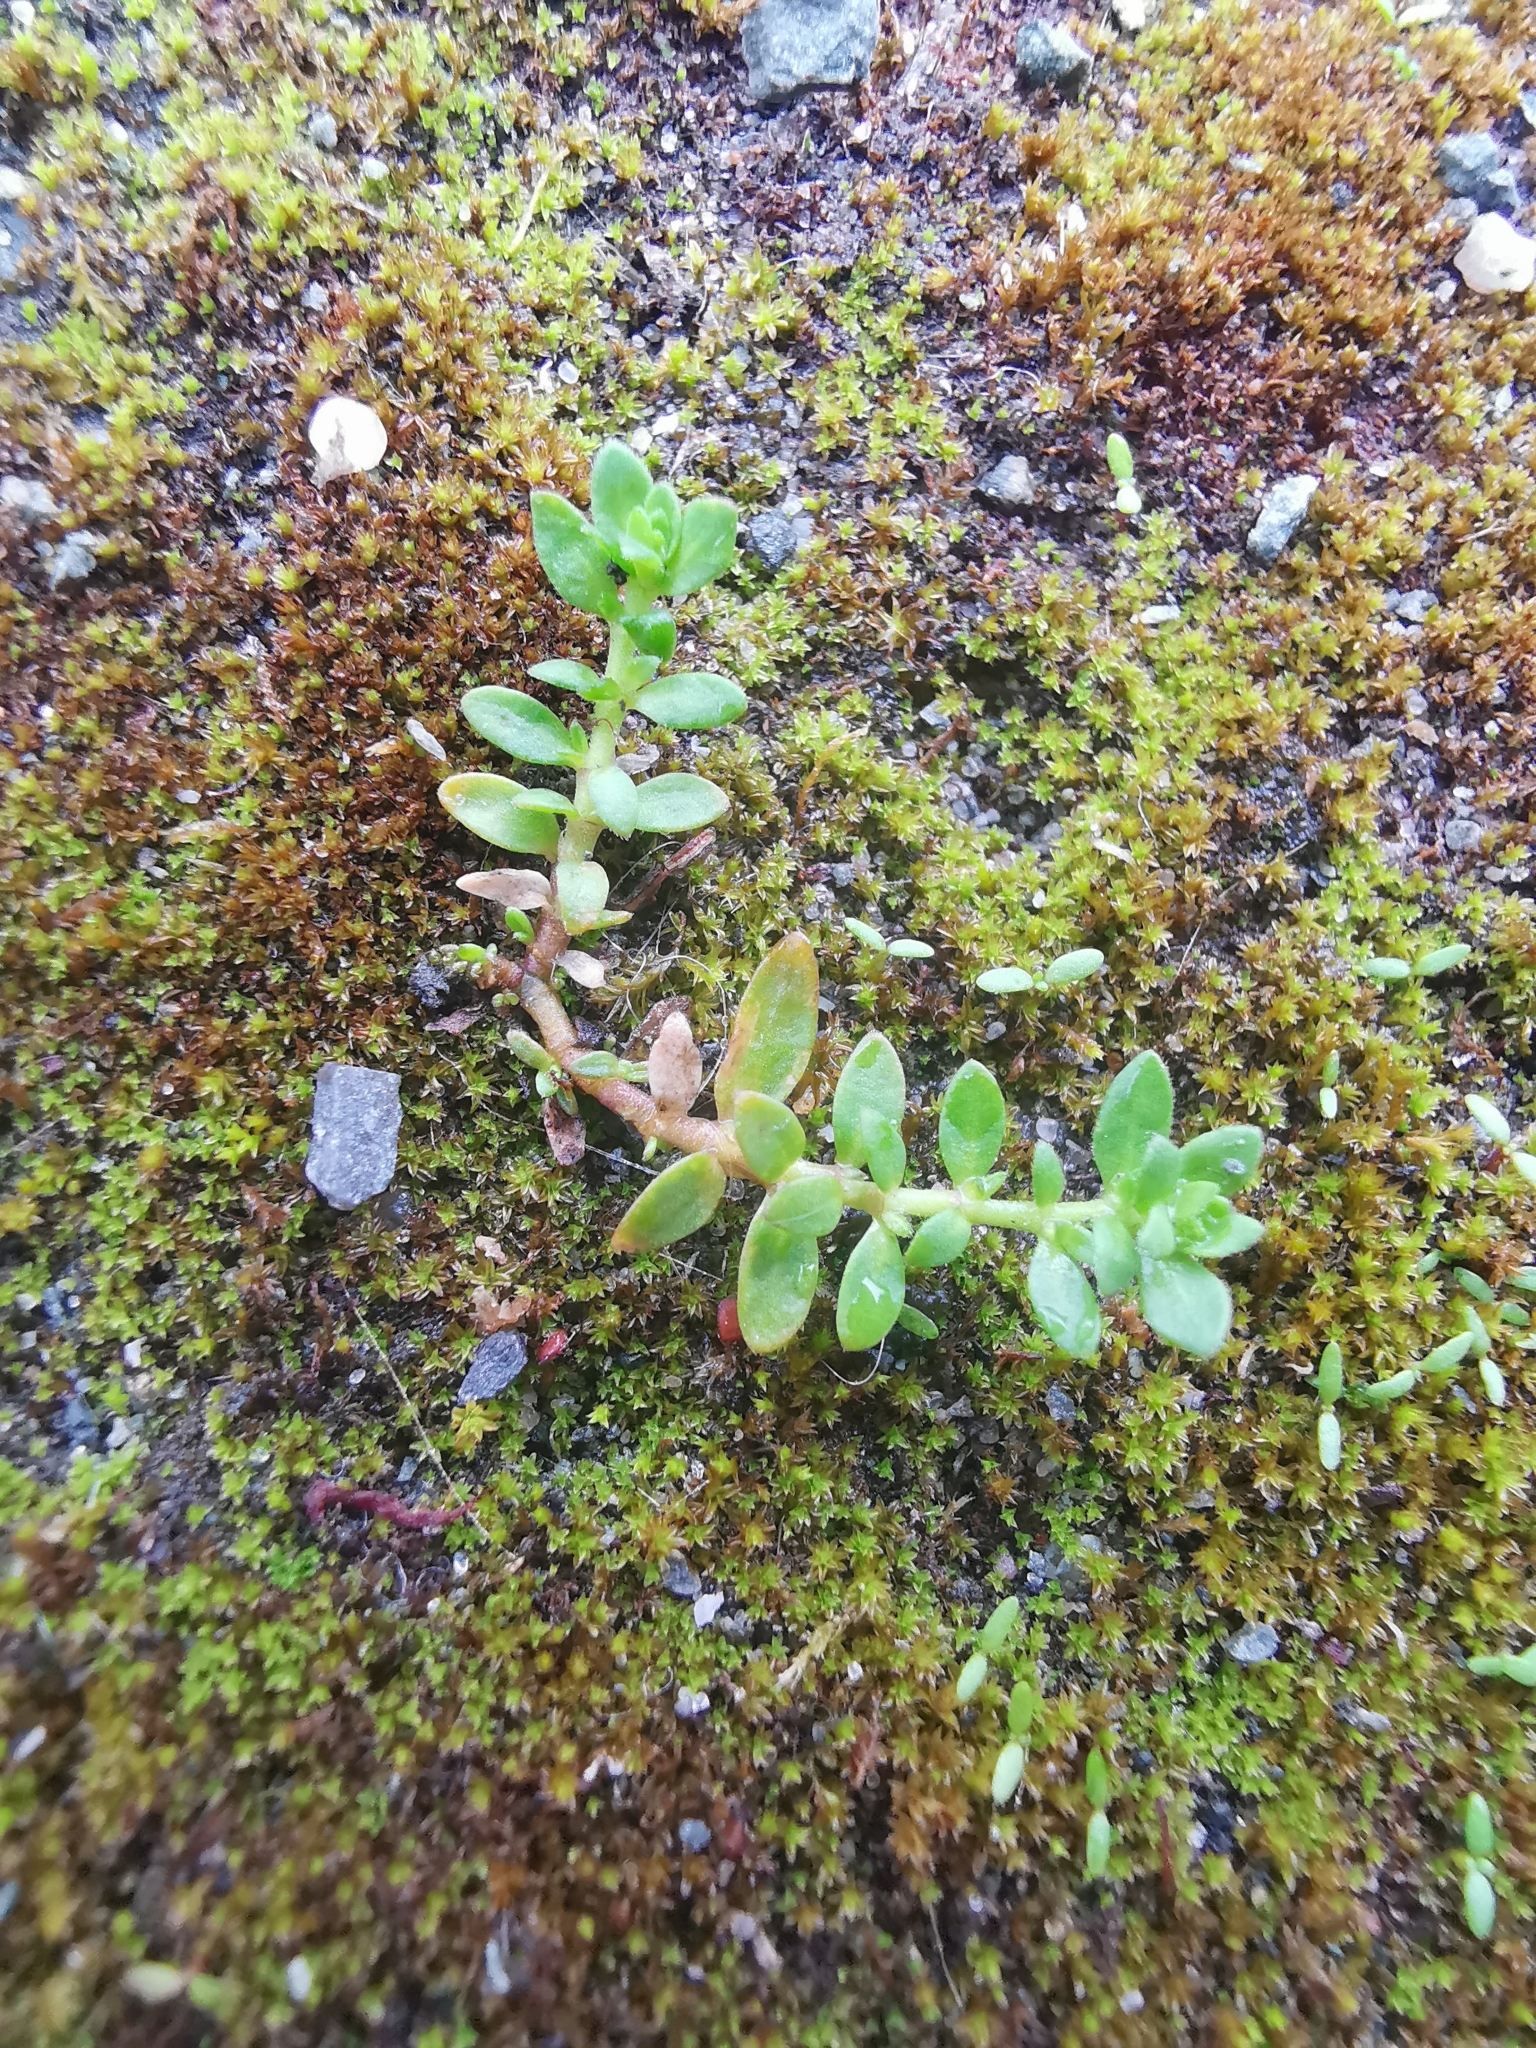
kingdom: Plantae
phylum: Tracheophyta
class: Magnoliopsida
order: Caryophyllales
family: Caryophyllaceae
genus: Herniaria
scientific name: Herniaria glabra
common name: Smooth rupturewort
